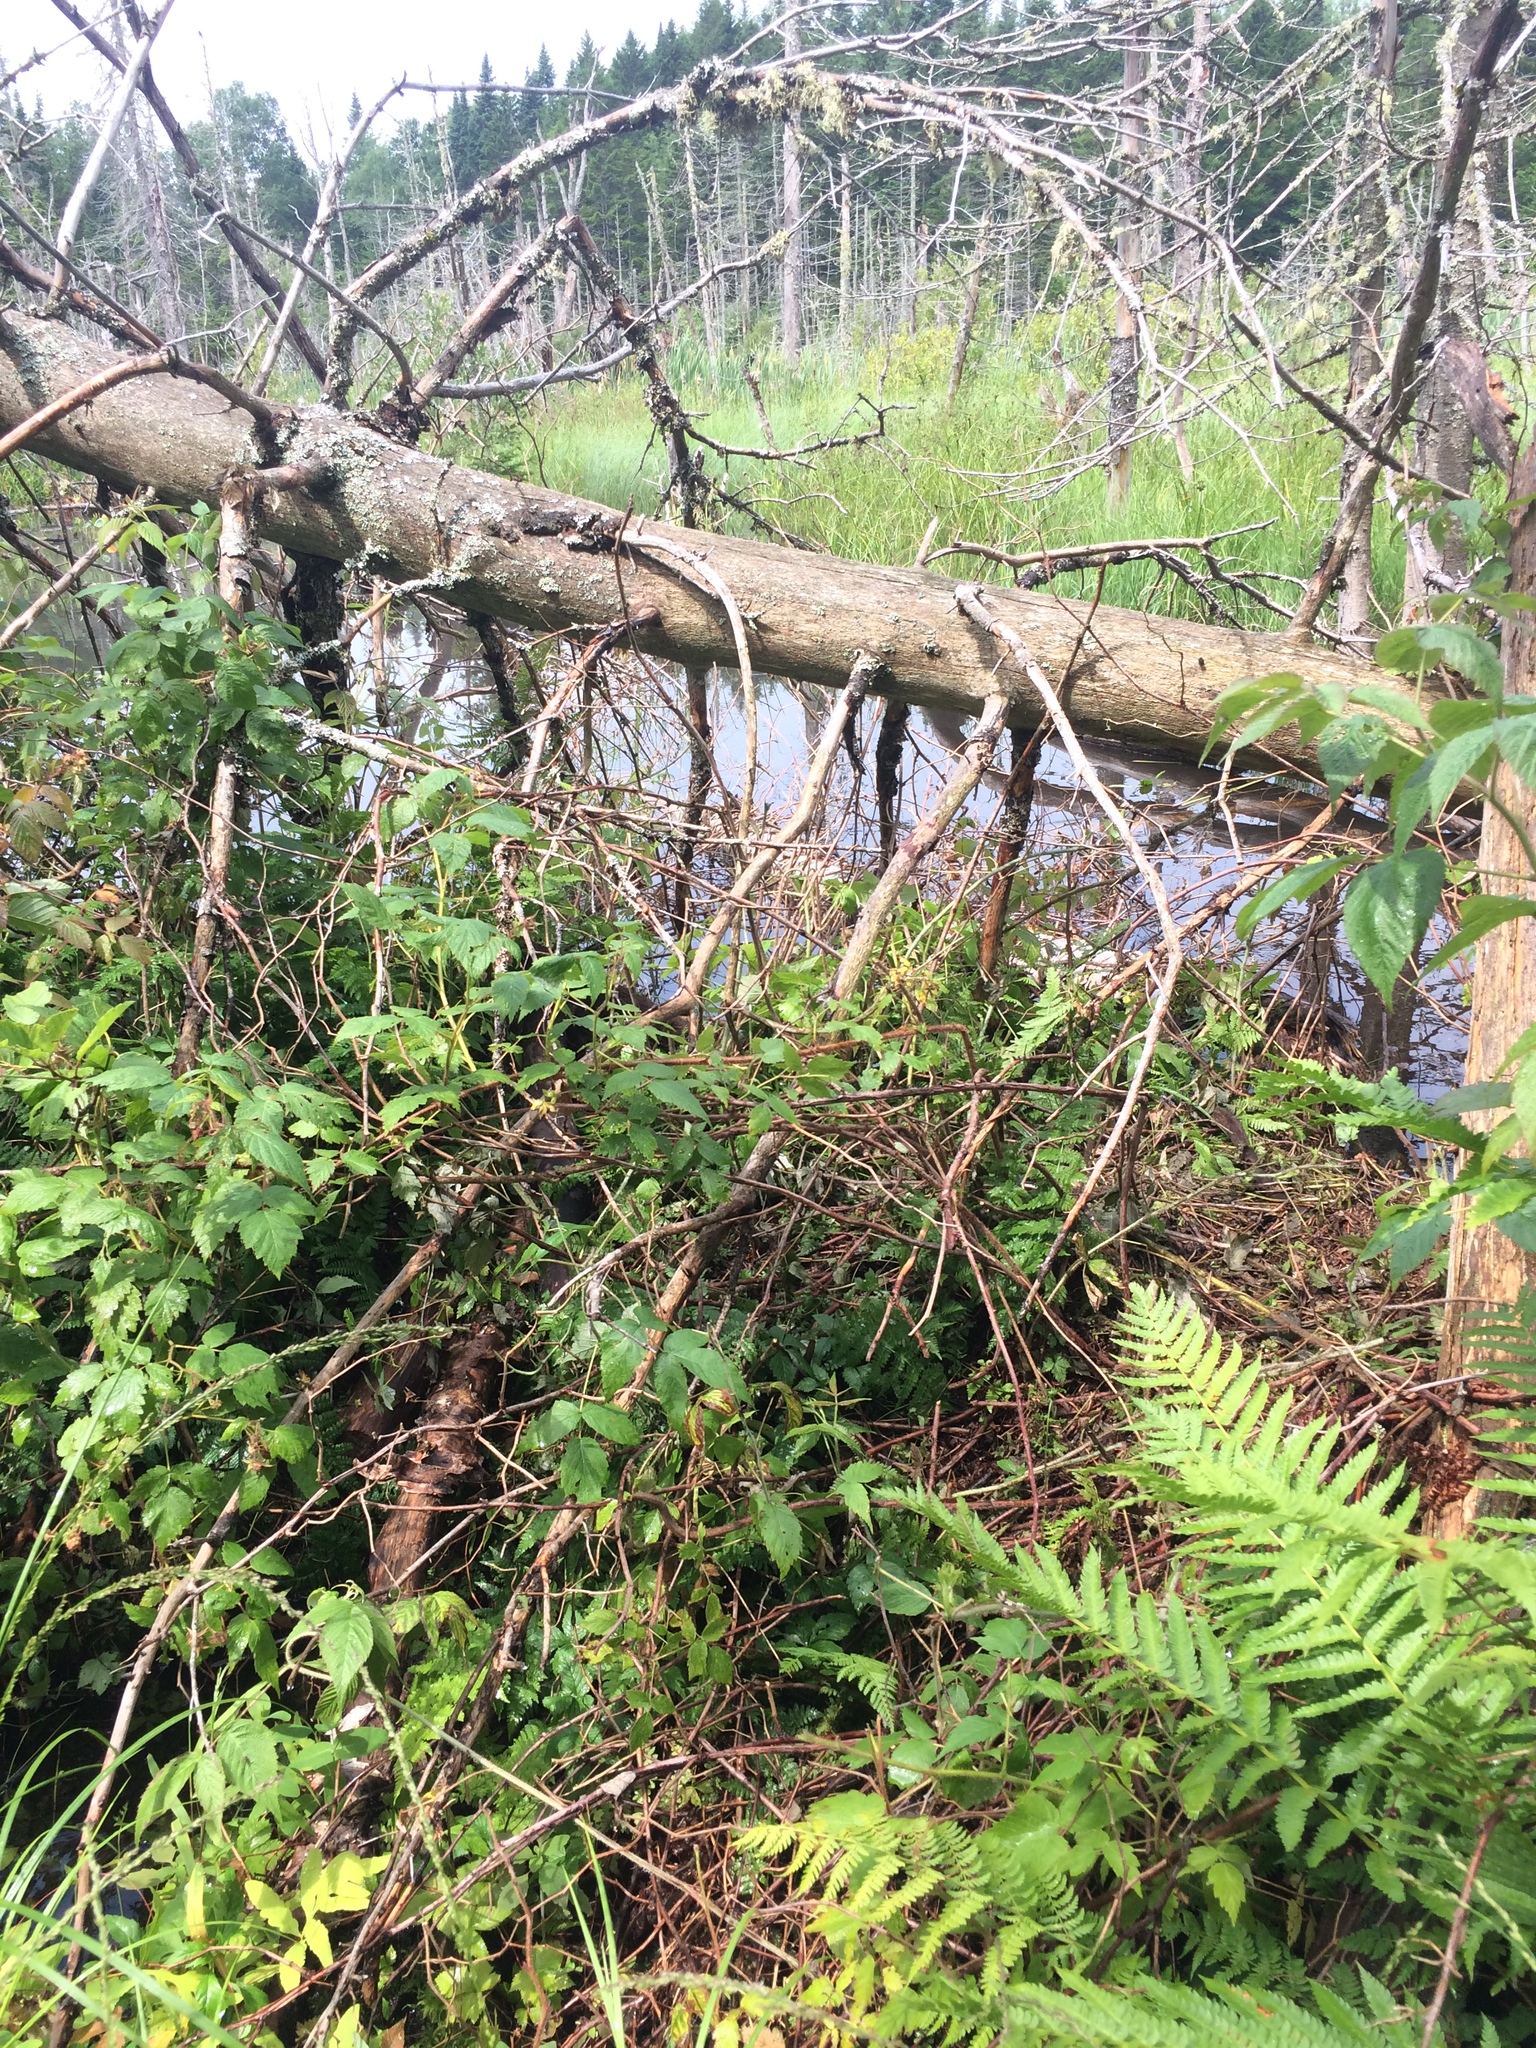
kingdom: Plantae
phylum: Tracheophyta
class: Liliopsida
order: Poales
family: Cyperaceae
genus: Carex
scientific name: Carex pseudocyperus
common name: Cyperus sedge
